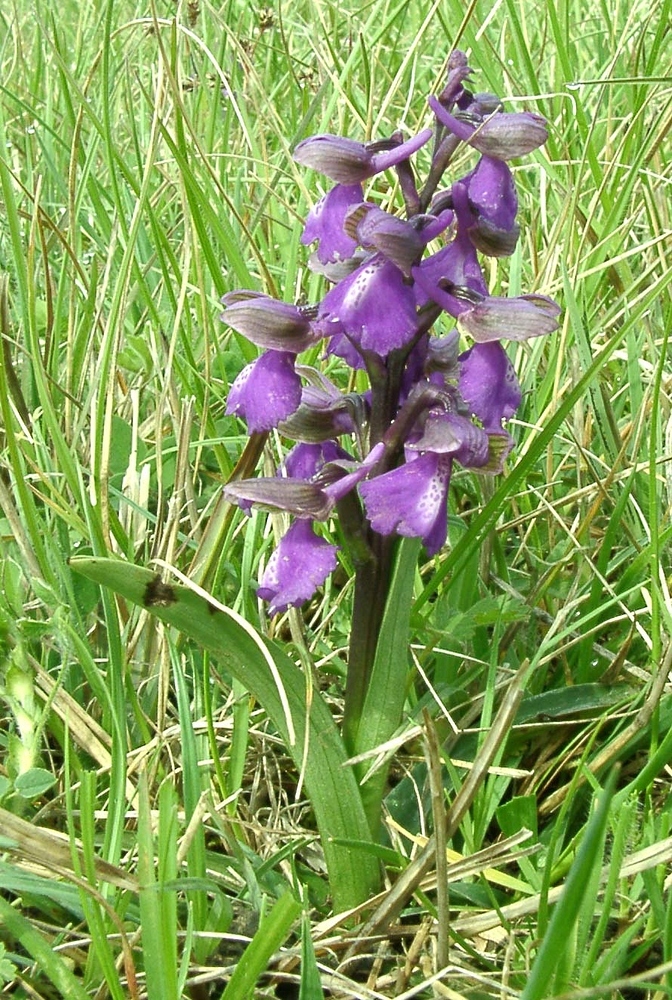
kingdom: Plantae
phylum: Tracheophyta
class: Liliopsida
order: Asparagales
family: Orchidaceae
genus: Anacamptis
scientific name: Anacamptis morio
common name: Green-winged orchid
